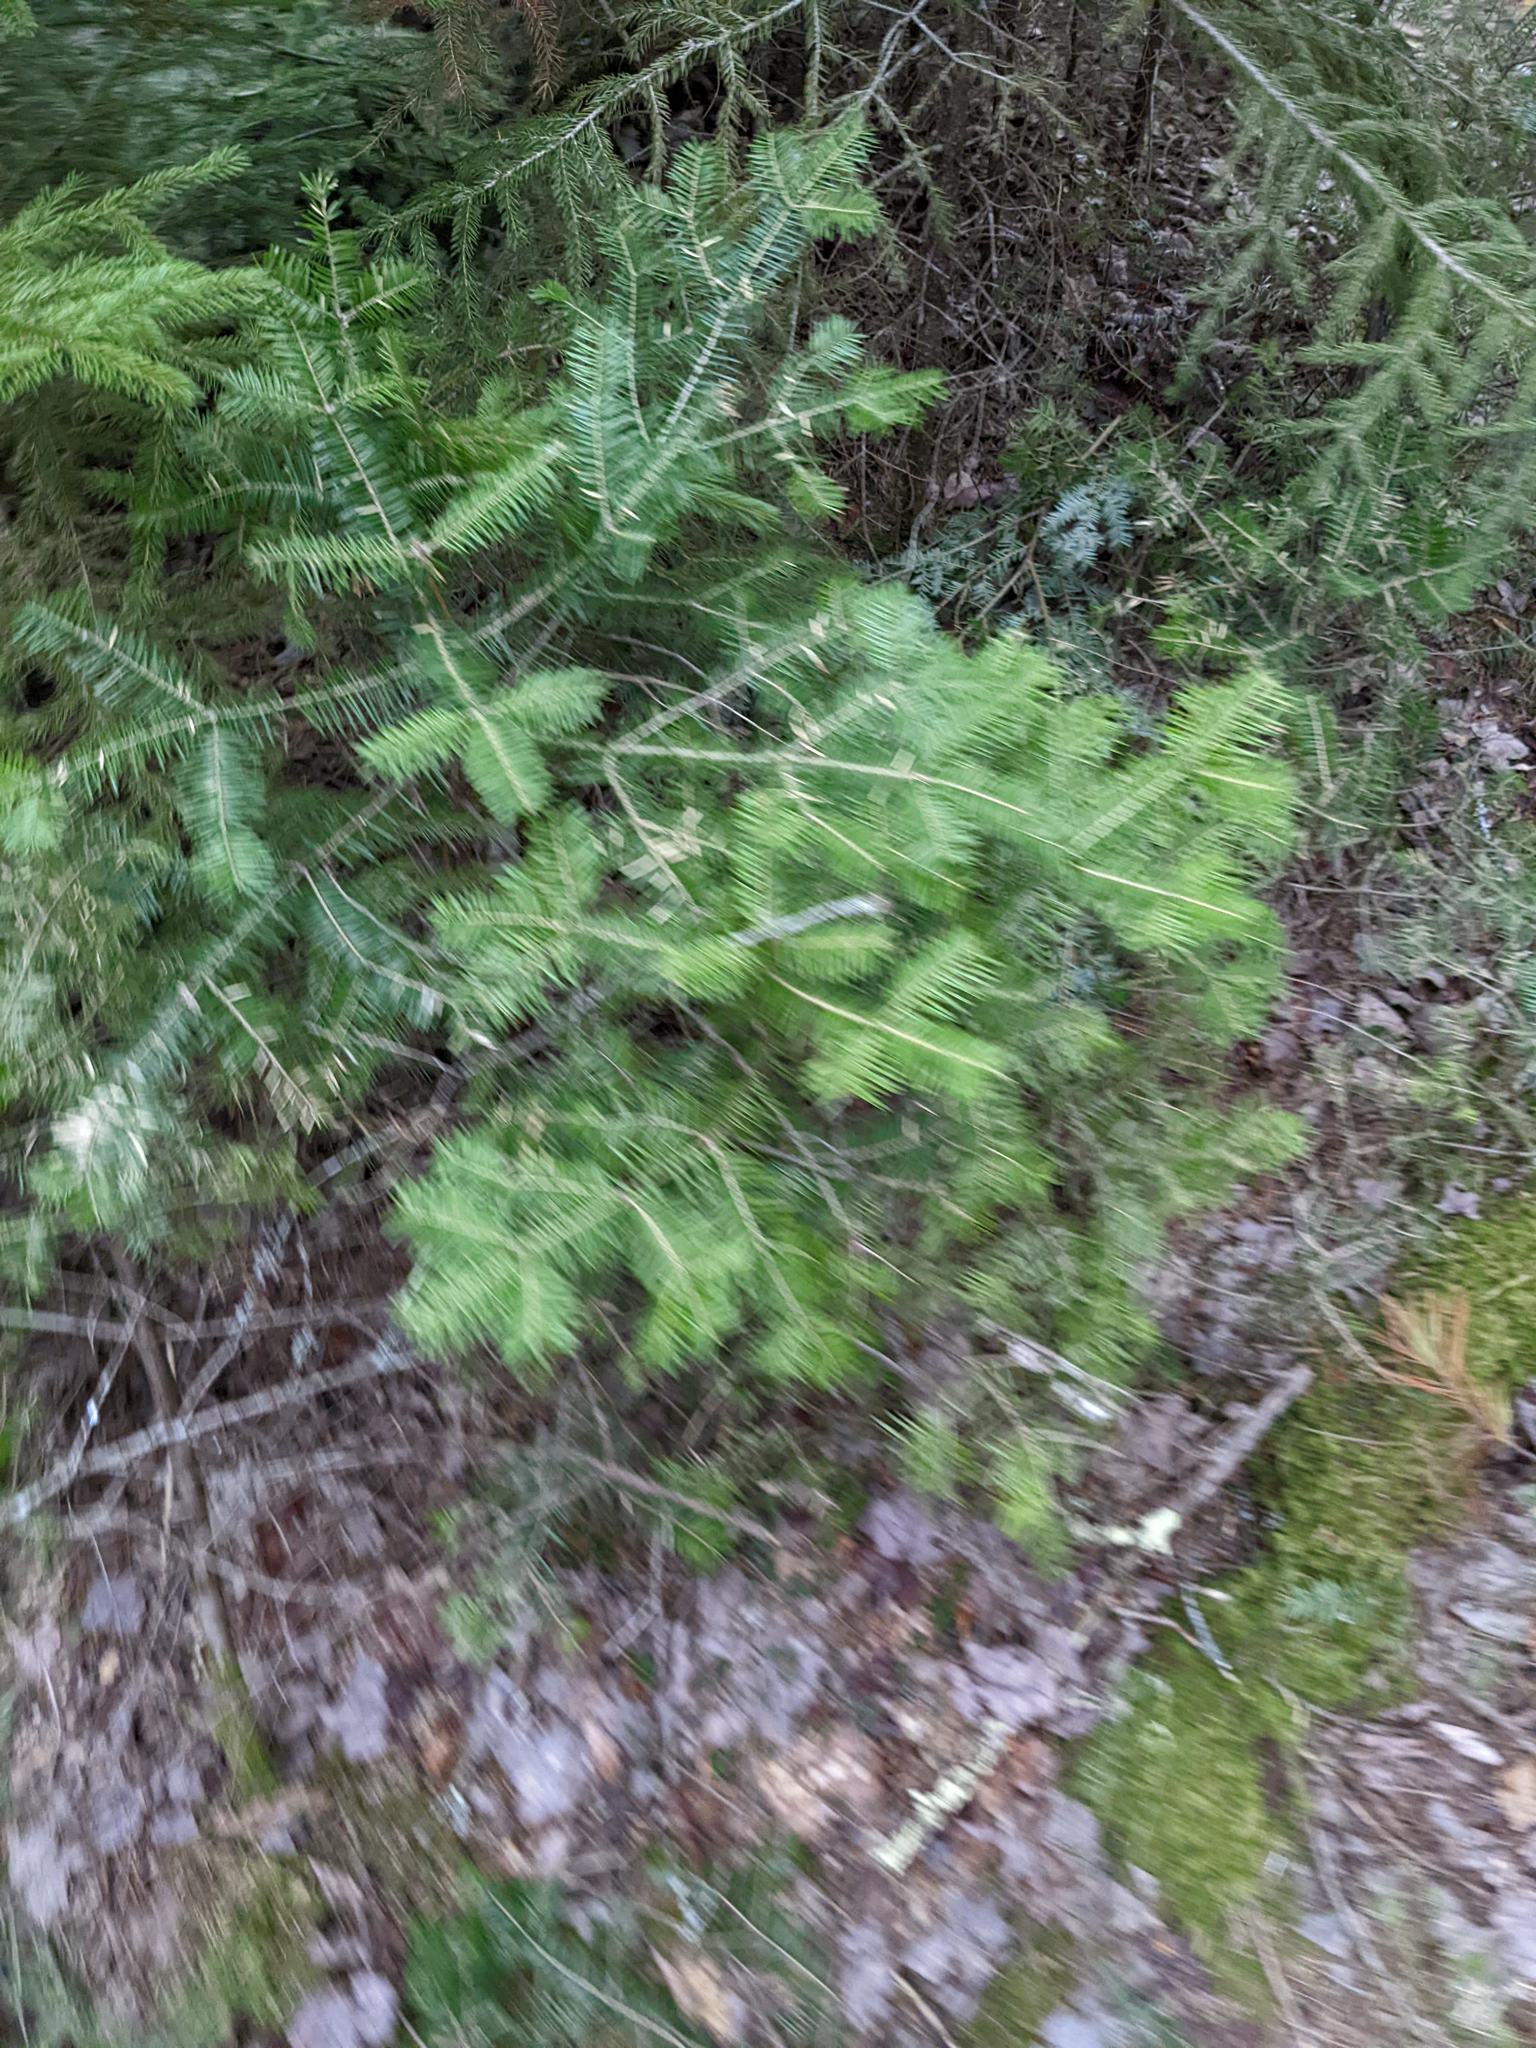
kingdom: Plantae
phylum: Tracheophyta
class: Pinopsida
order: Pinales
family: Pinaceae
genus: Abies
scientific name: Abies balsamea
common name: Balsam fir
